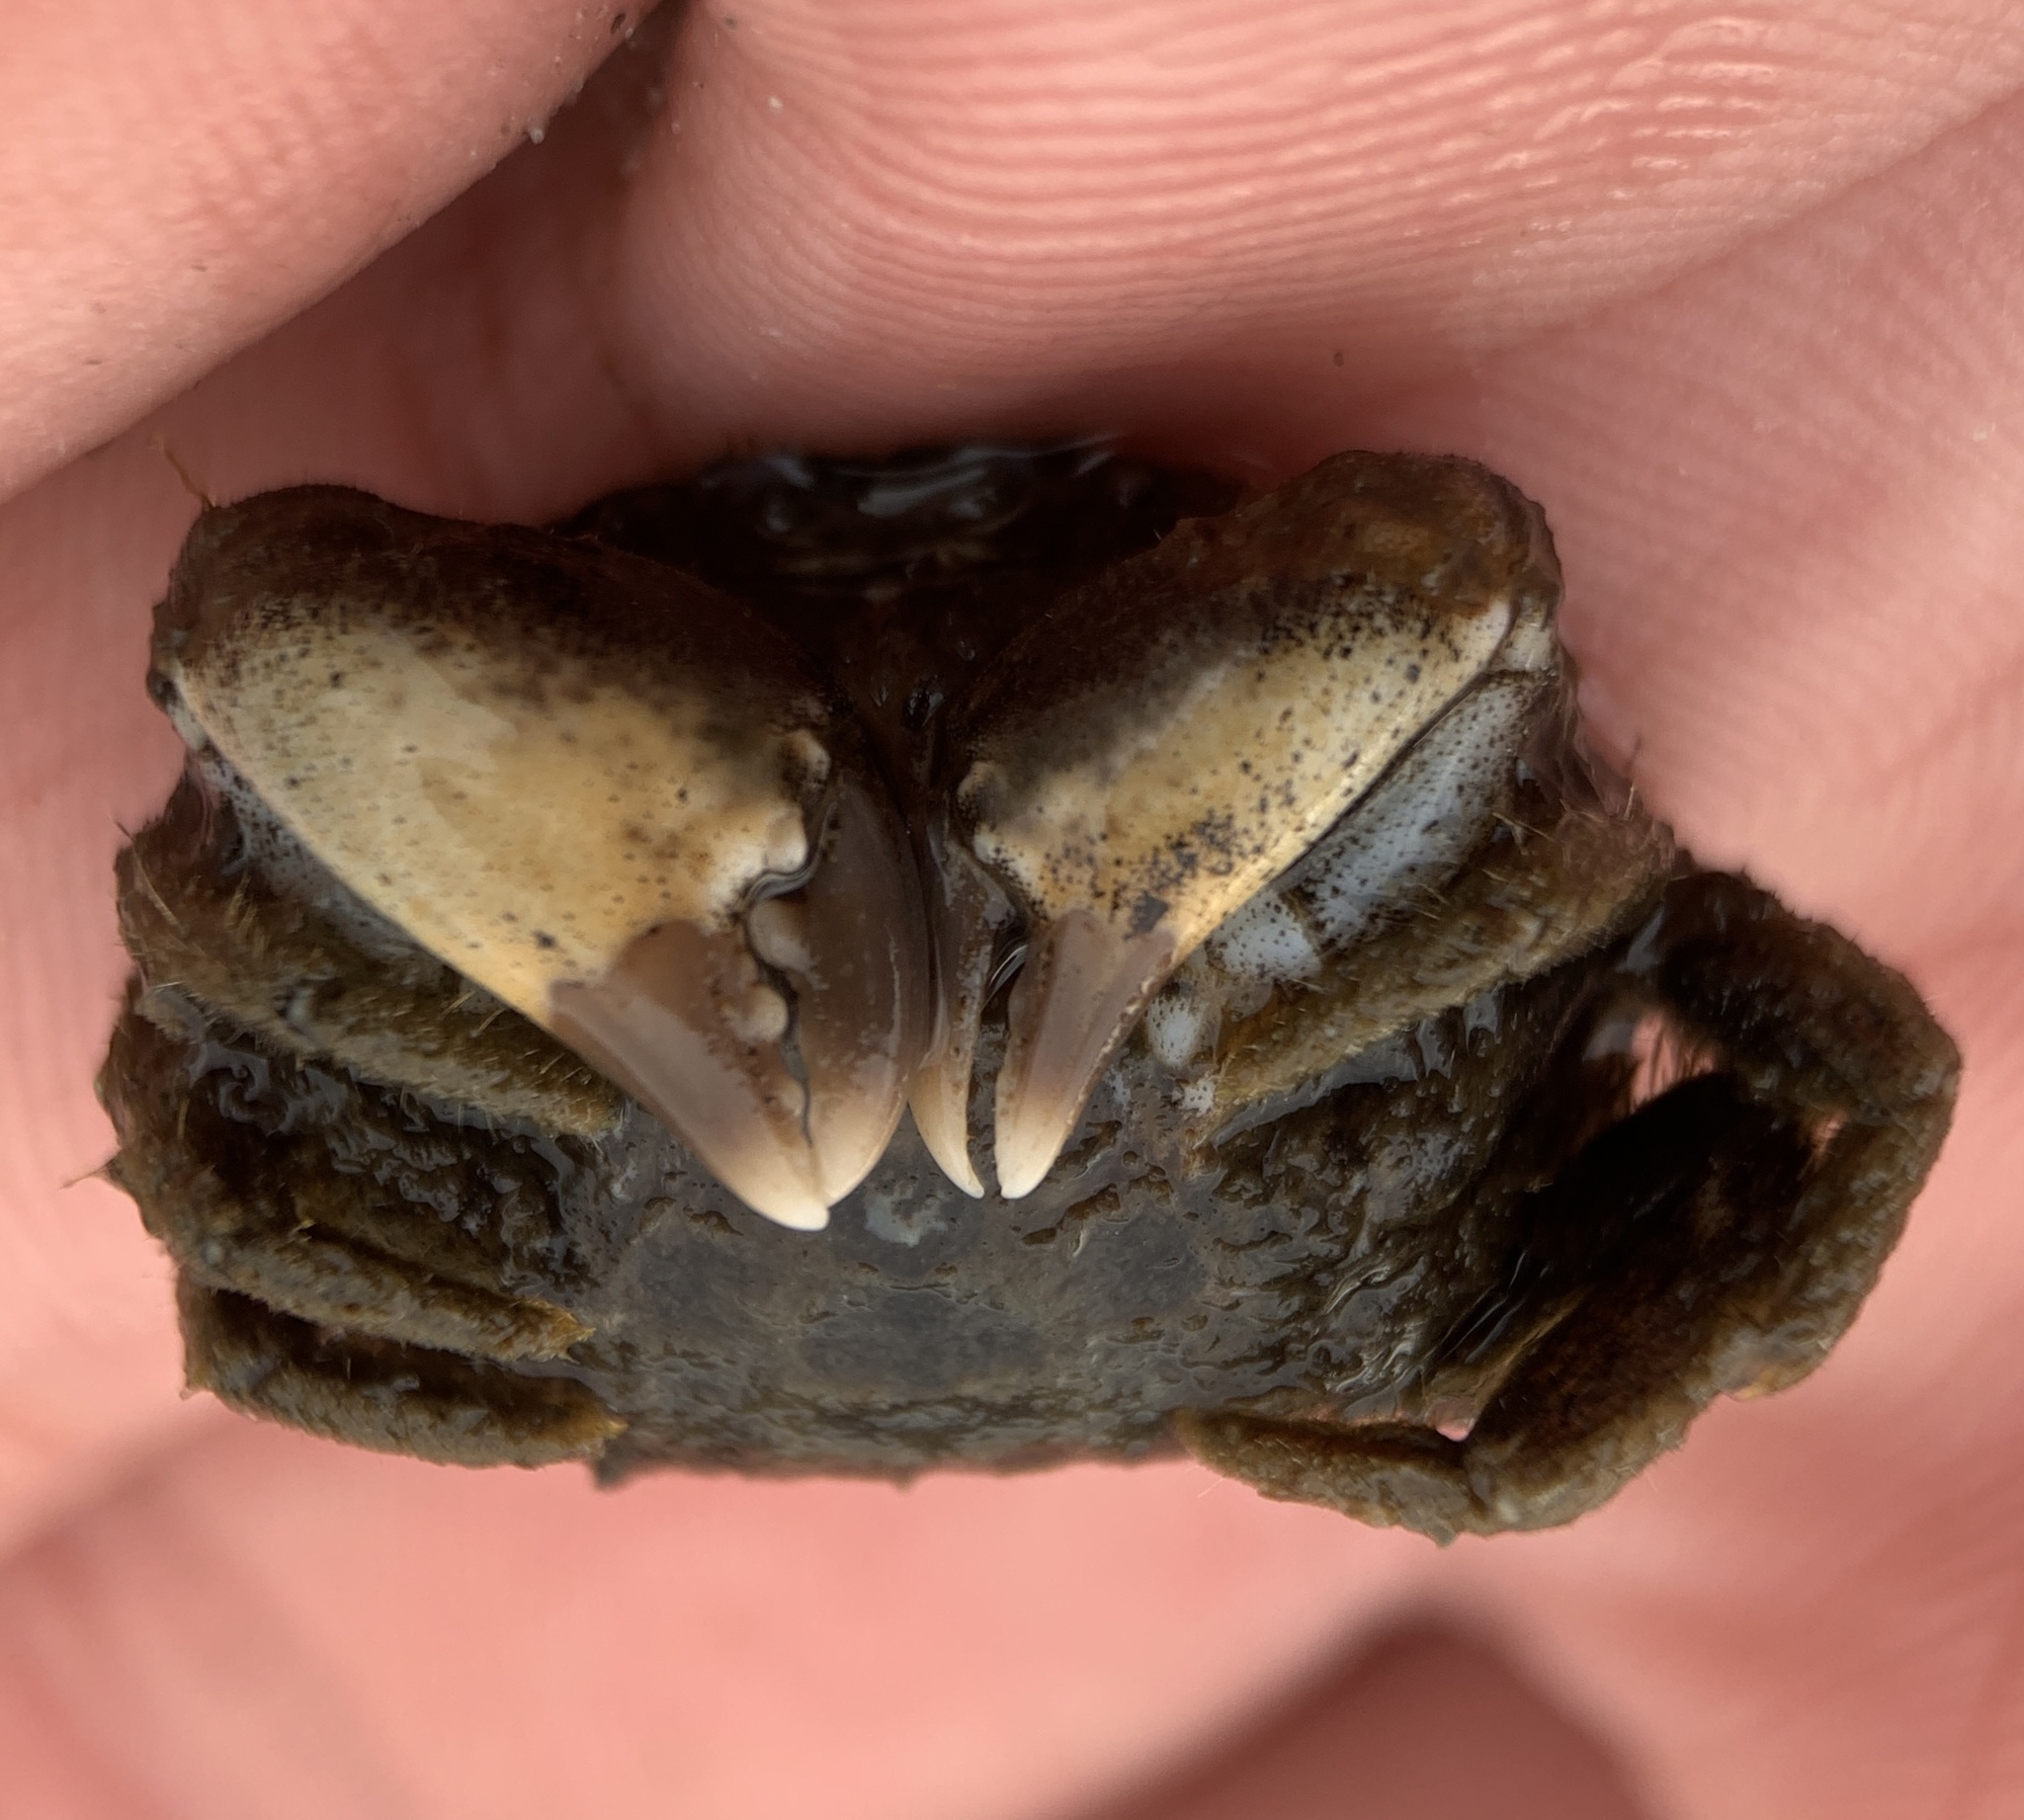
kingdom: Animalia
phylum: Arthropoda
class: Malacostraca
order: Decapoda
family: Panopeidae
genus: Panopeus
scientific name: Panopeus herbstii
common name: Atlantic mud crab
